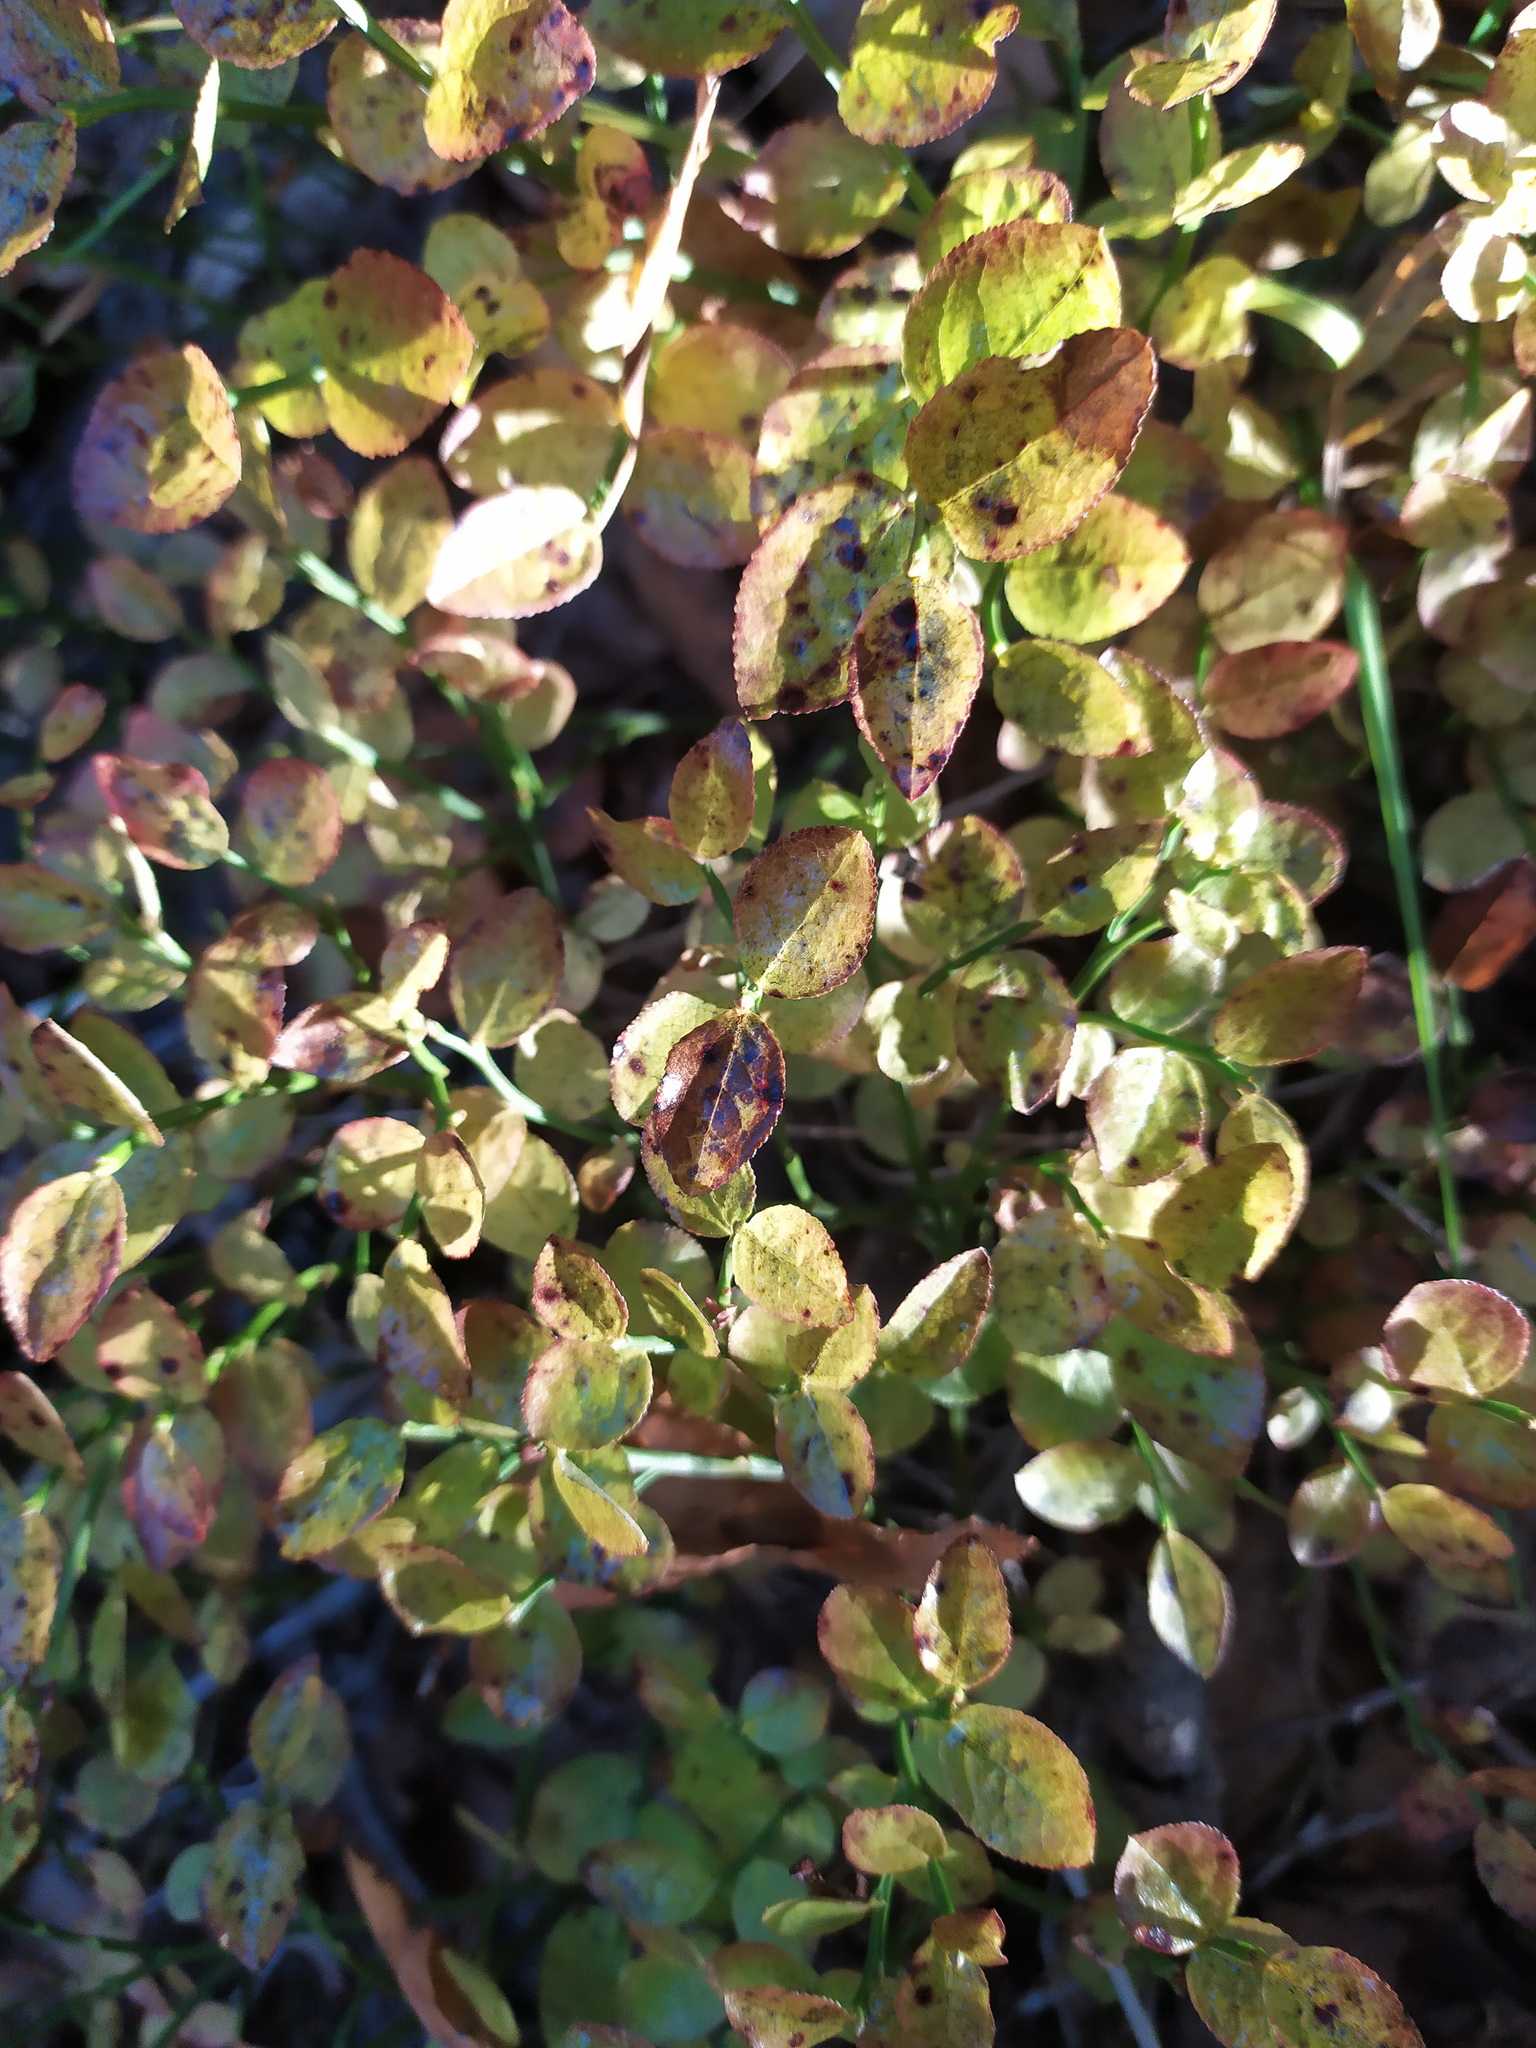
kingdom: Plantae
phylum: Tracheophyta
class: Magnoliopsida
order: Ericales
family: Ericaceae
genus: Vaccinium
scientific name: Vaccinium myrtillus
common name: Bilberry
